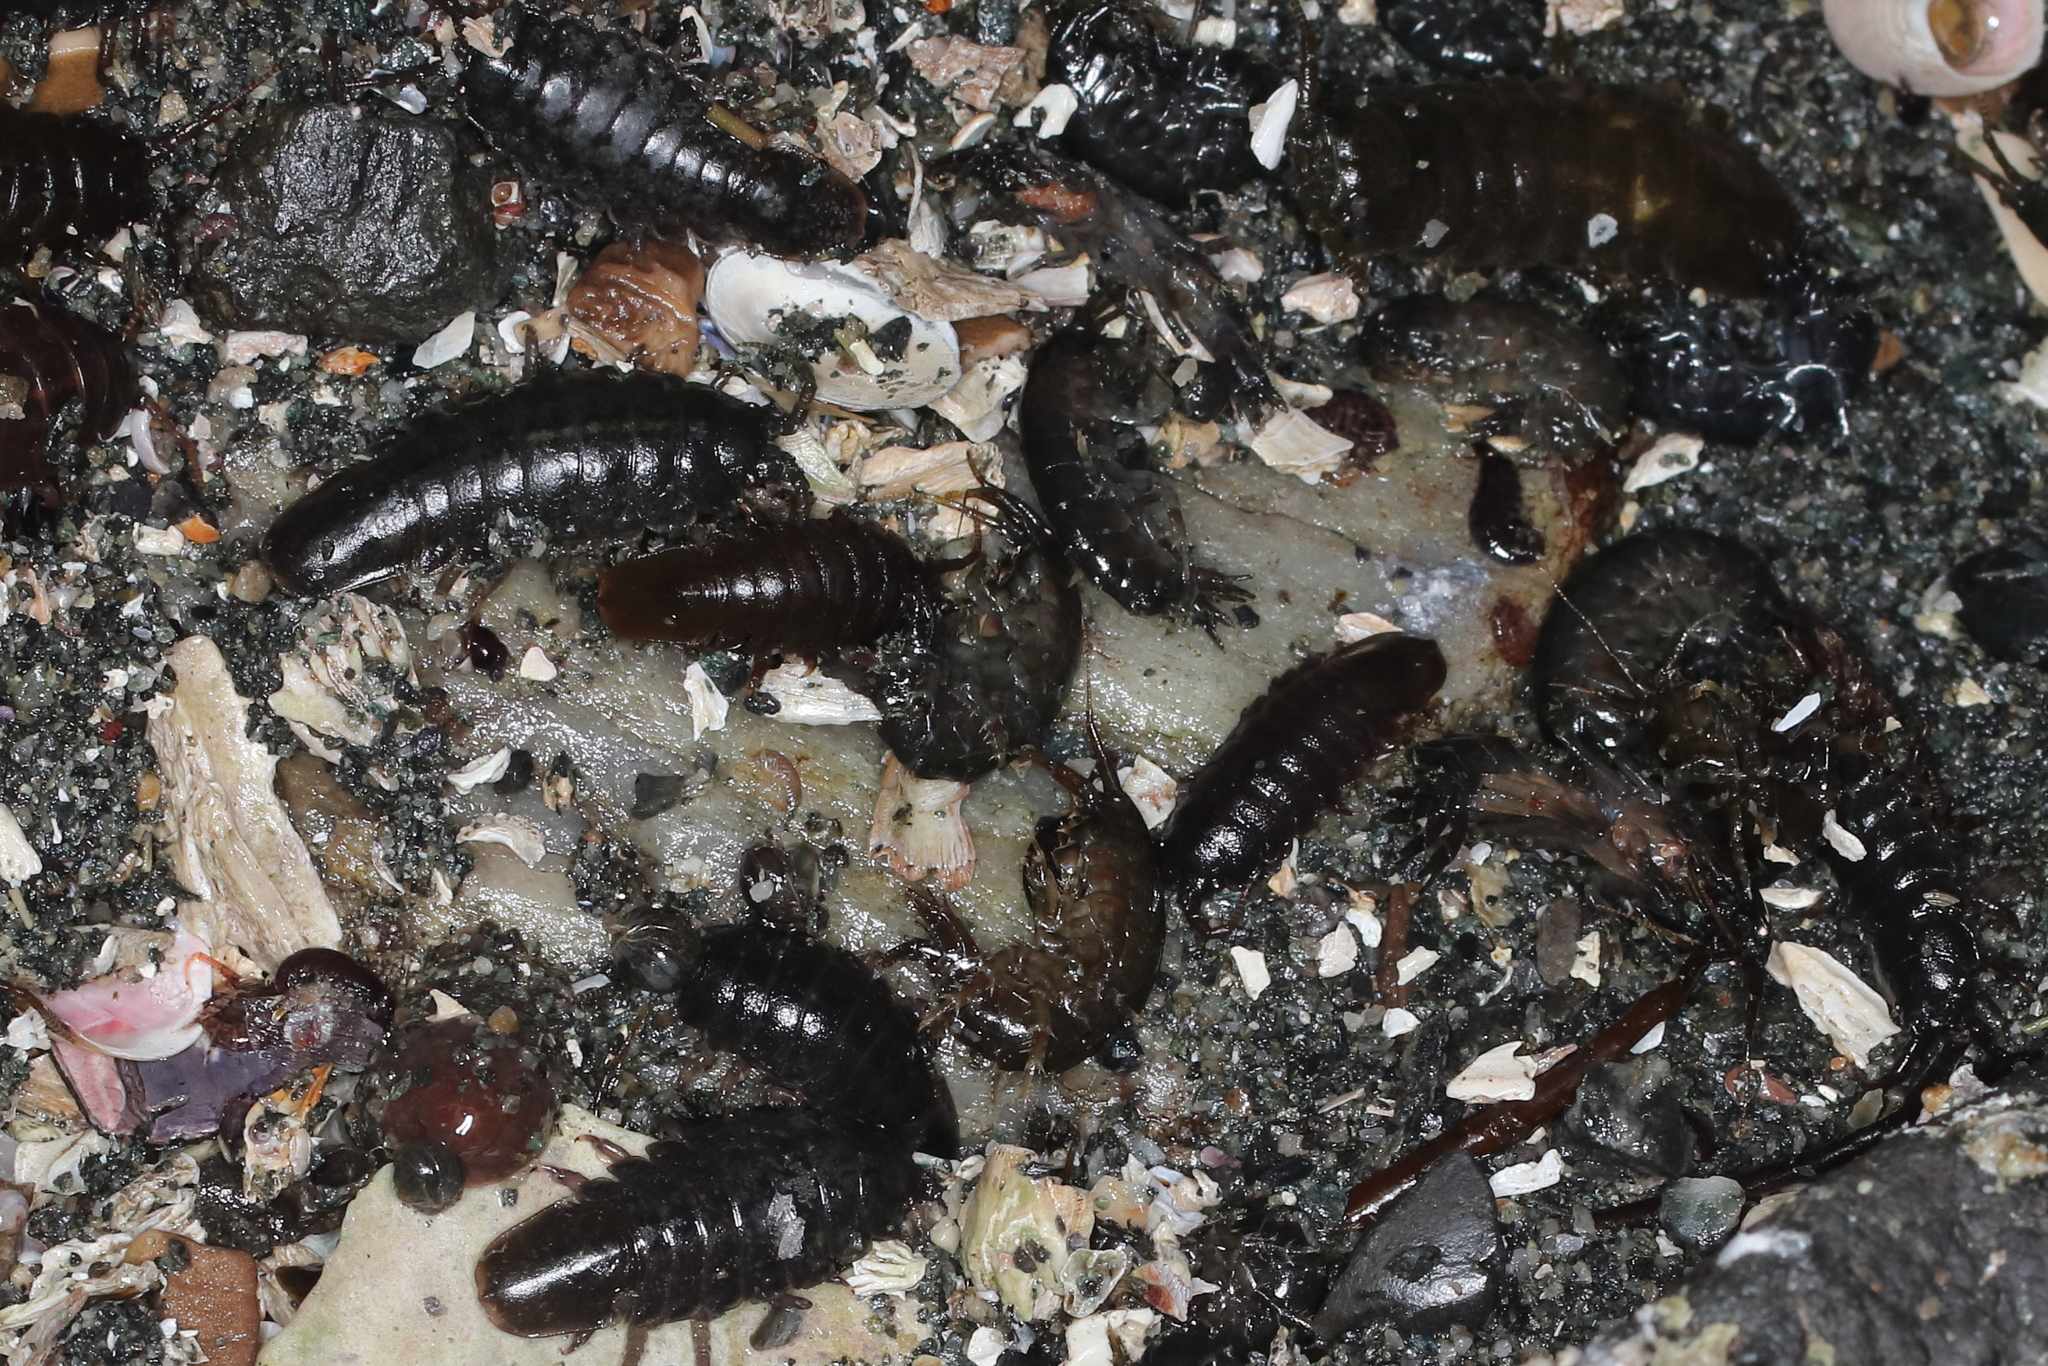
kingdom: Animalia
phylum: Arthropoda
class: Malacostraca
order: Isopoda
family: Idoteidae
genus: Pentidotea
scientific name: Pentidotea wosnesenskii
